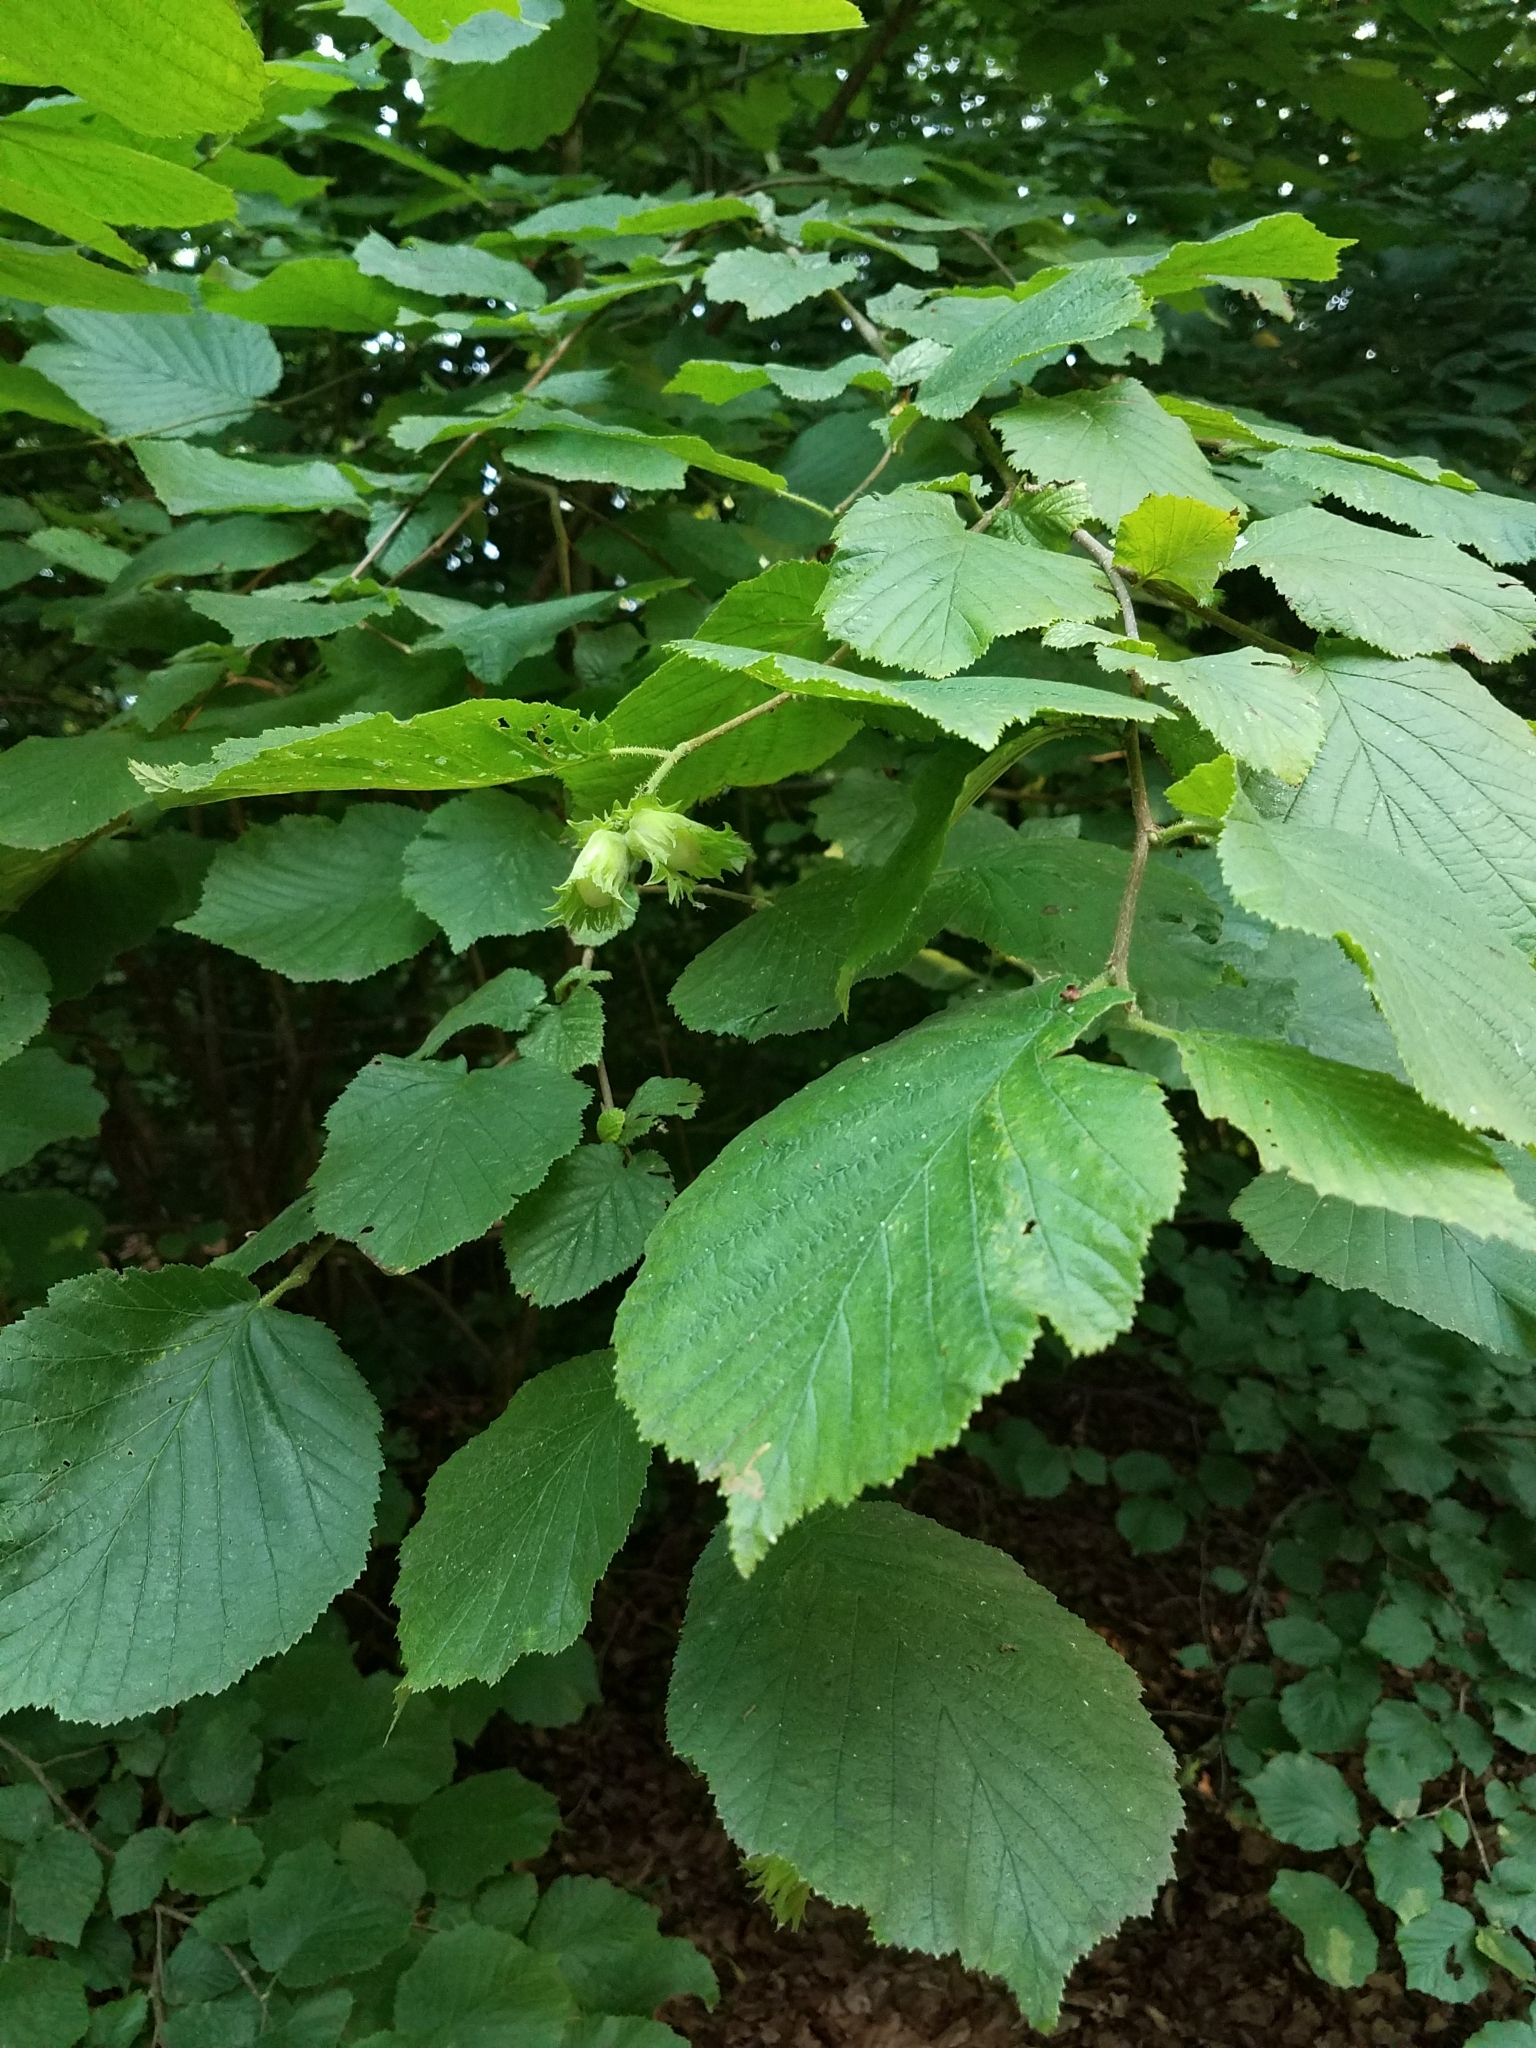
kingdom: Plantae
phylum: Tracheophyta
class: Magnoliopsida
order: Fagales
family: Betulaceae
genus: Corylus
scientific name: Corylus avellana
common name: European hazel
